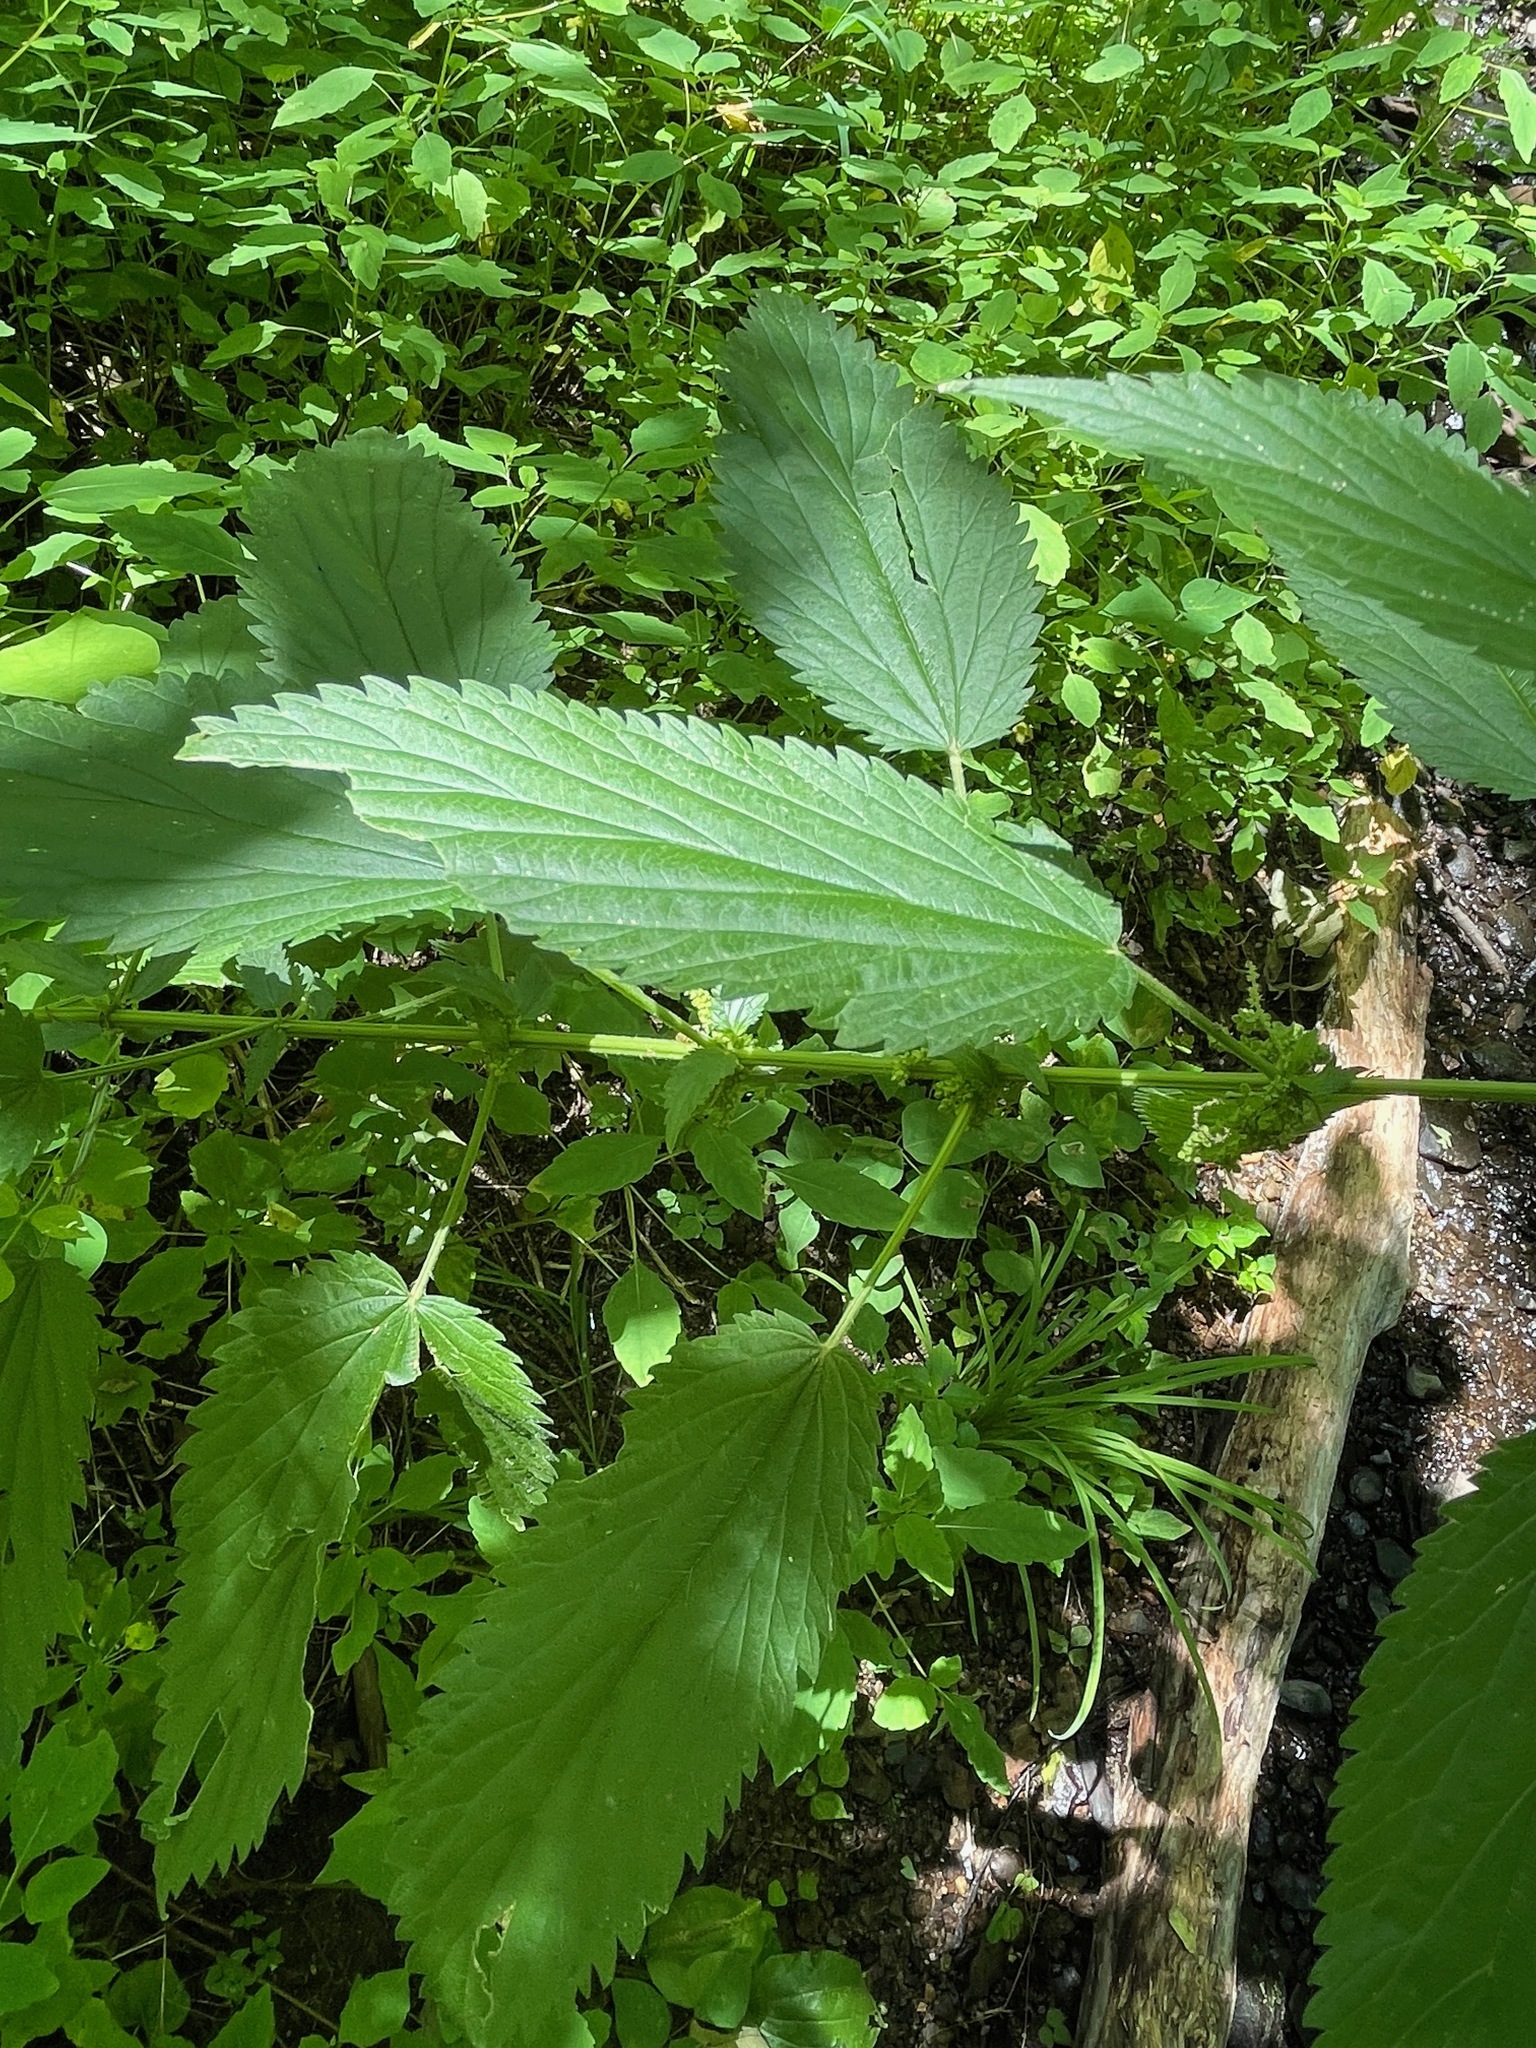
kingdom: Plantae
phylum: Tracheophyta
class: Magnoliopsida
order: Rosales
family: Urticaceae
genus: Urtica
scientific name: Urtica gracilis
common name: Slender stinging nettle
